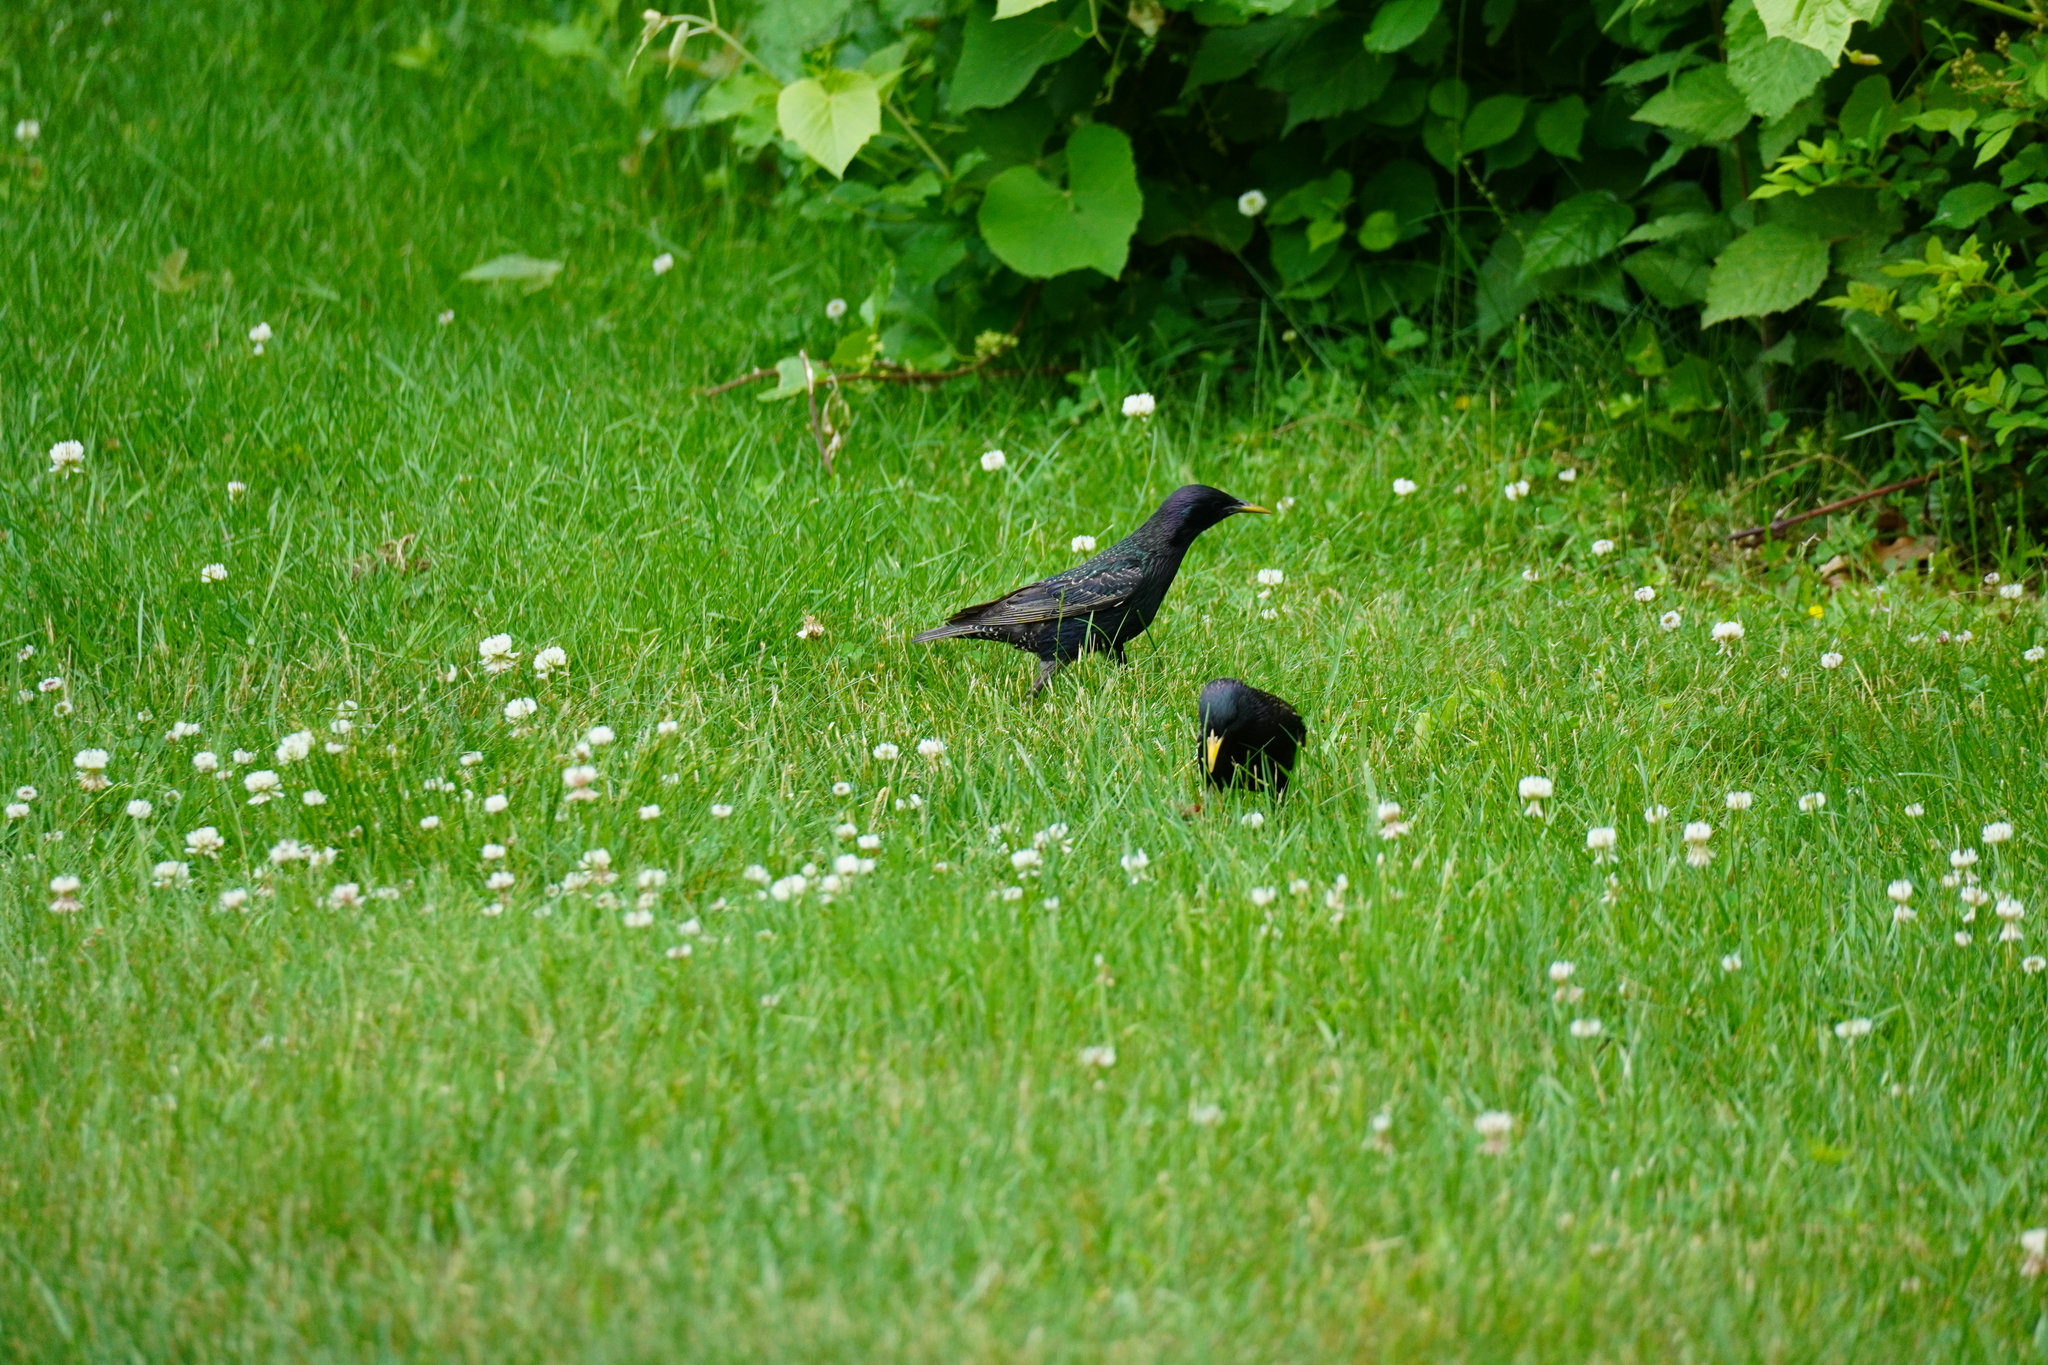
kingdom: Animalia
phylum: Chordata
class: Aves
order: Passeriformes
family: Sturnidae
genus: Sturnus
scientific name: Sturnus vulgaris
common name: Common starling
